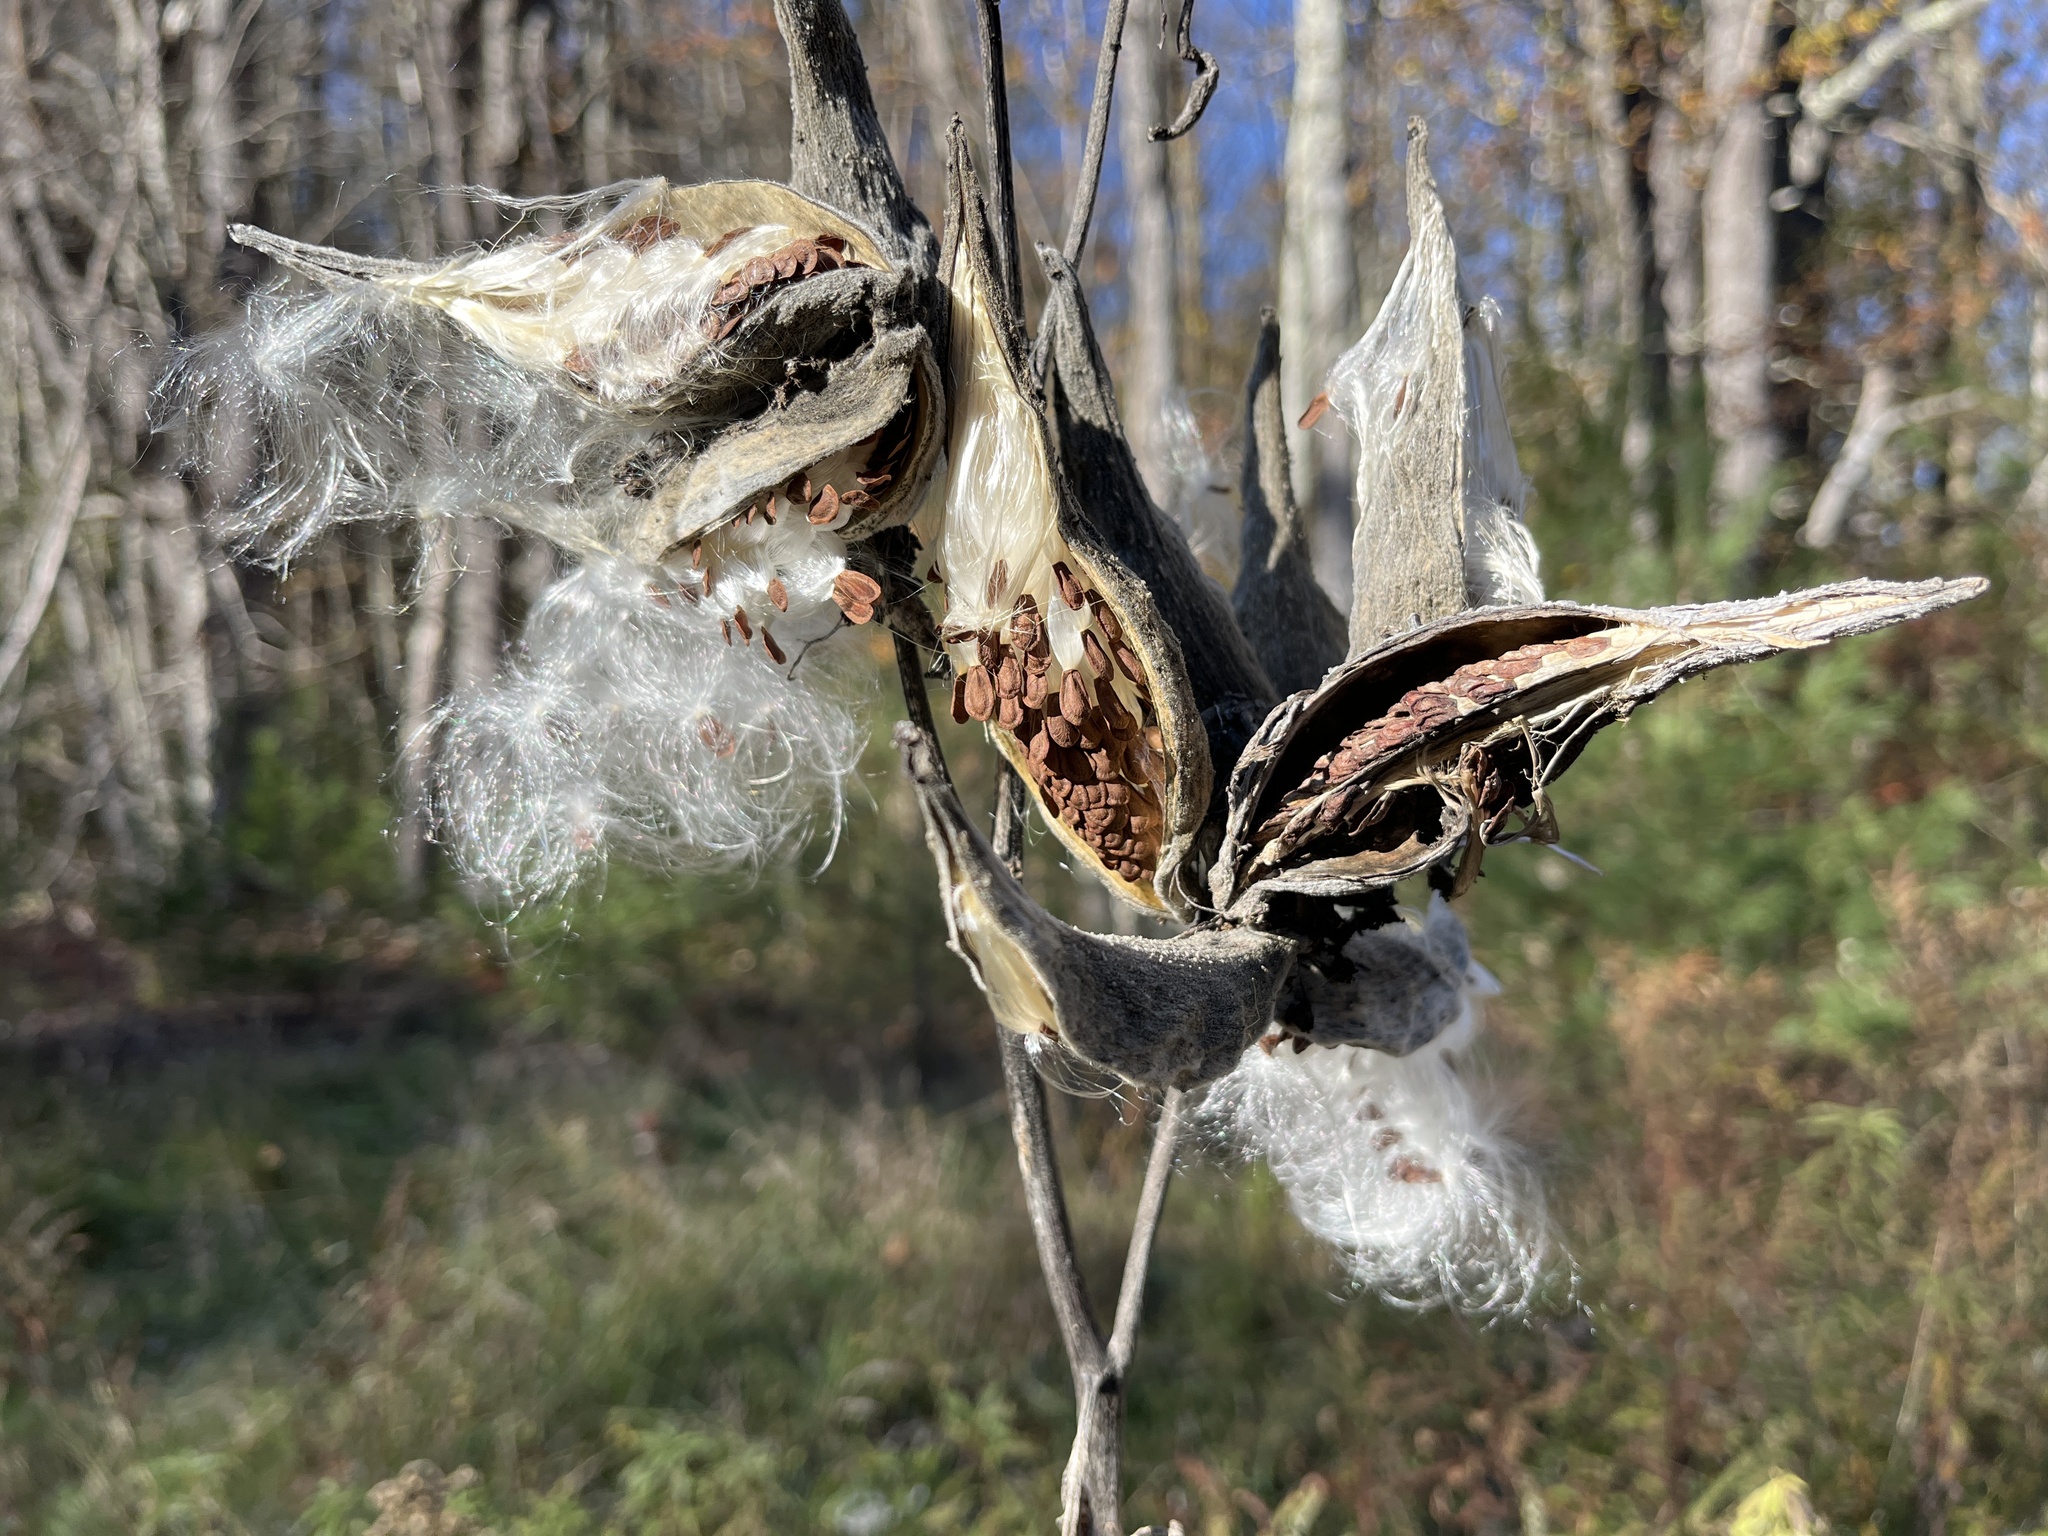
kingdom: Plantae
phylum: Tracheophyta
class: Magnoliopsida
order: Gentianales
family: Apocynaceae
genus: Asclepias
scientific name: Asclepias syriaca
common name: Common milkweed
